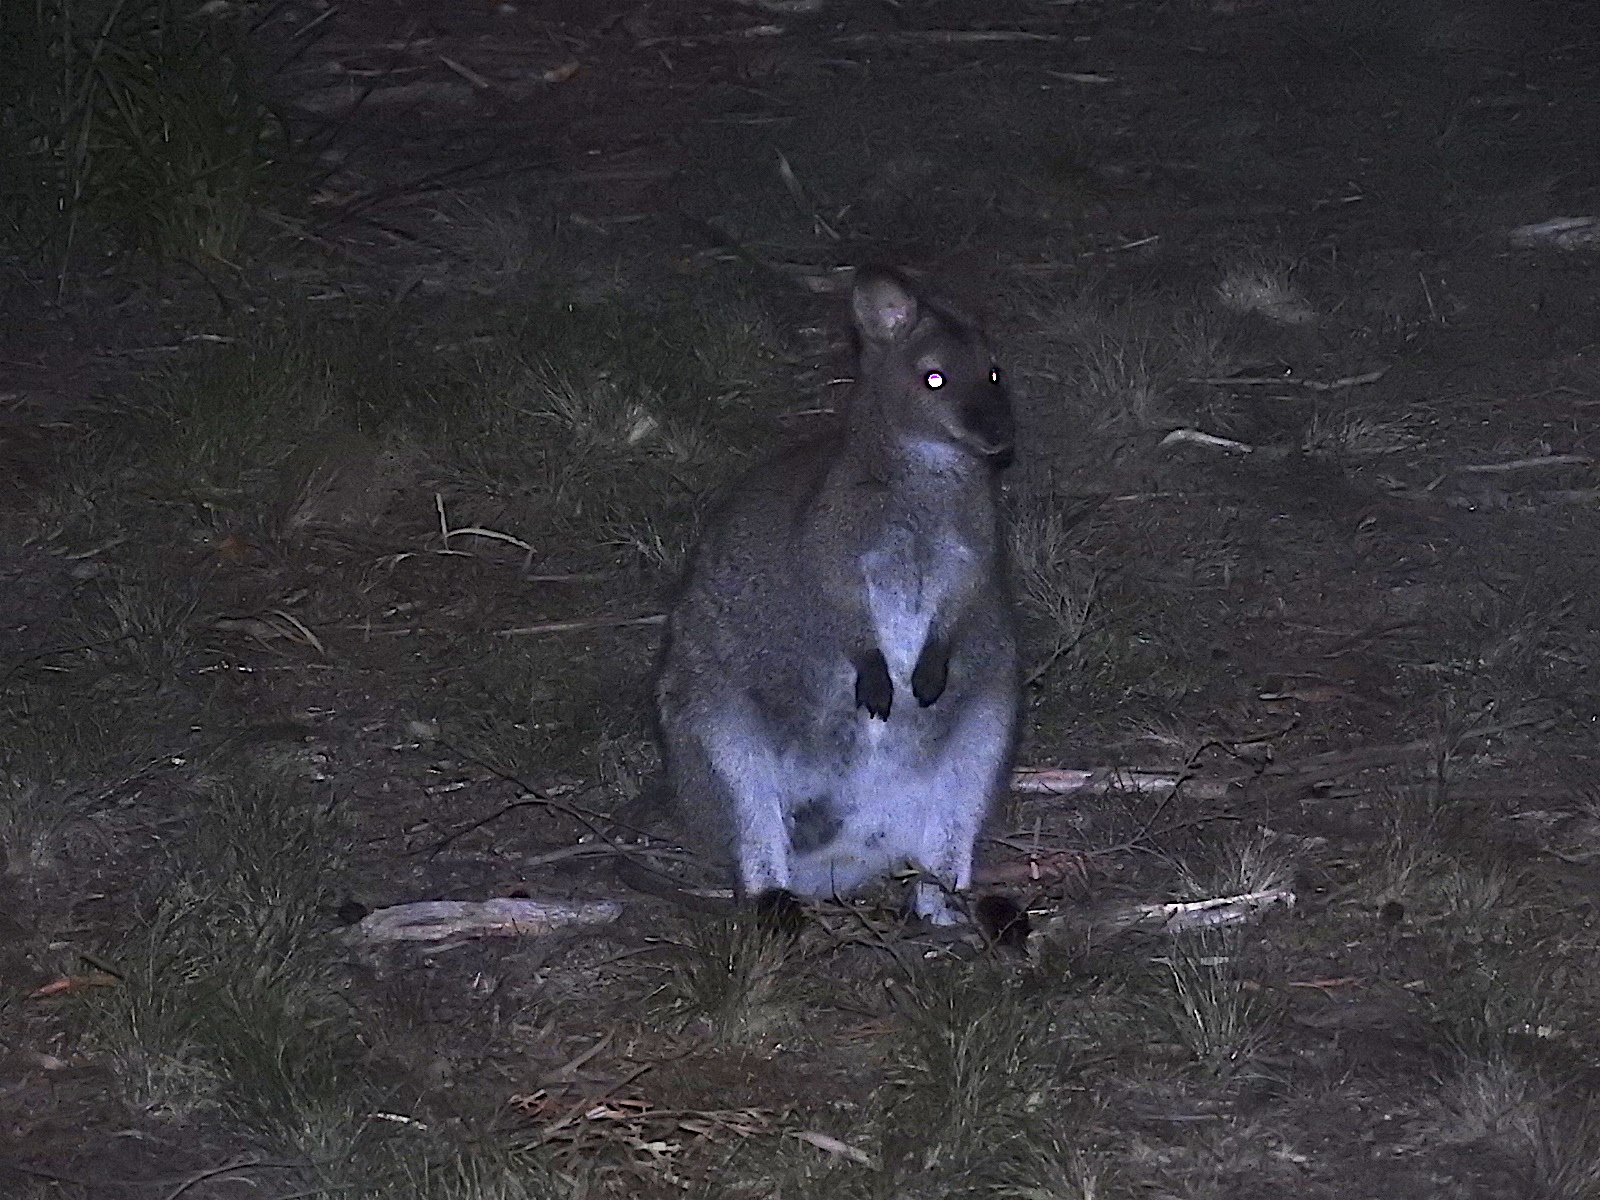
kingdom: Animalia
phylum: Chordata
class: Mammalia
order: Diprotodontia
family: Macropodidae
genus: Notamacropus
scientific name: Notamacropus rufogriseus
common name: Red-necked wallaby
